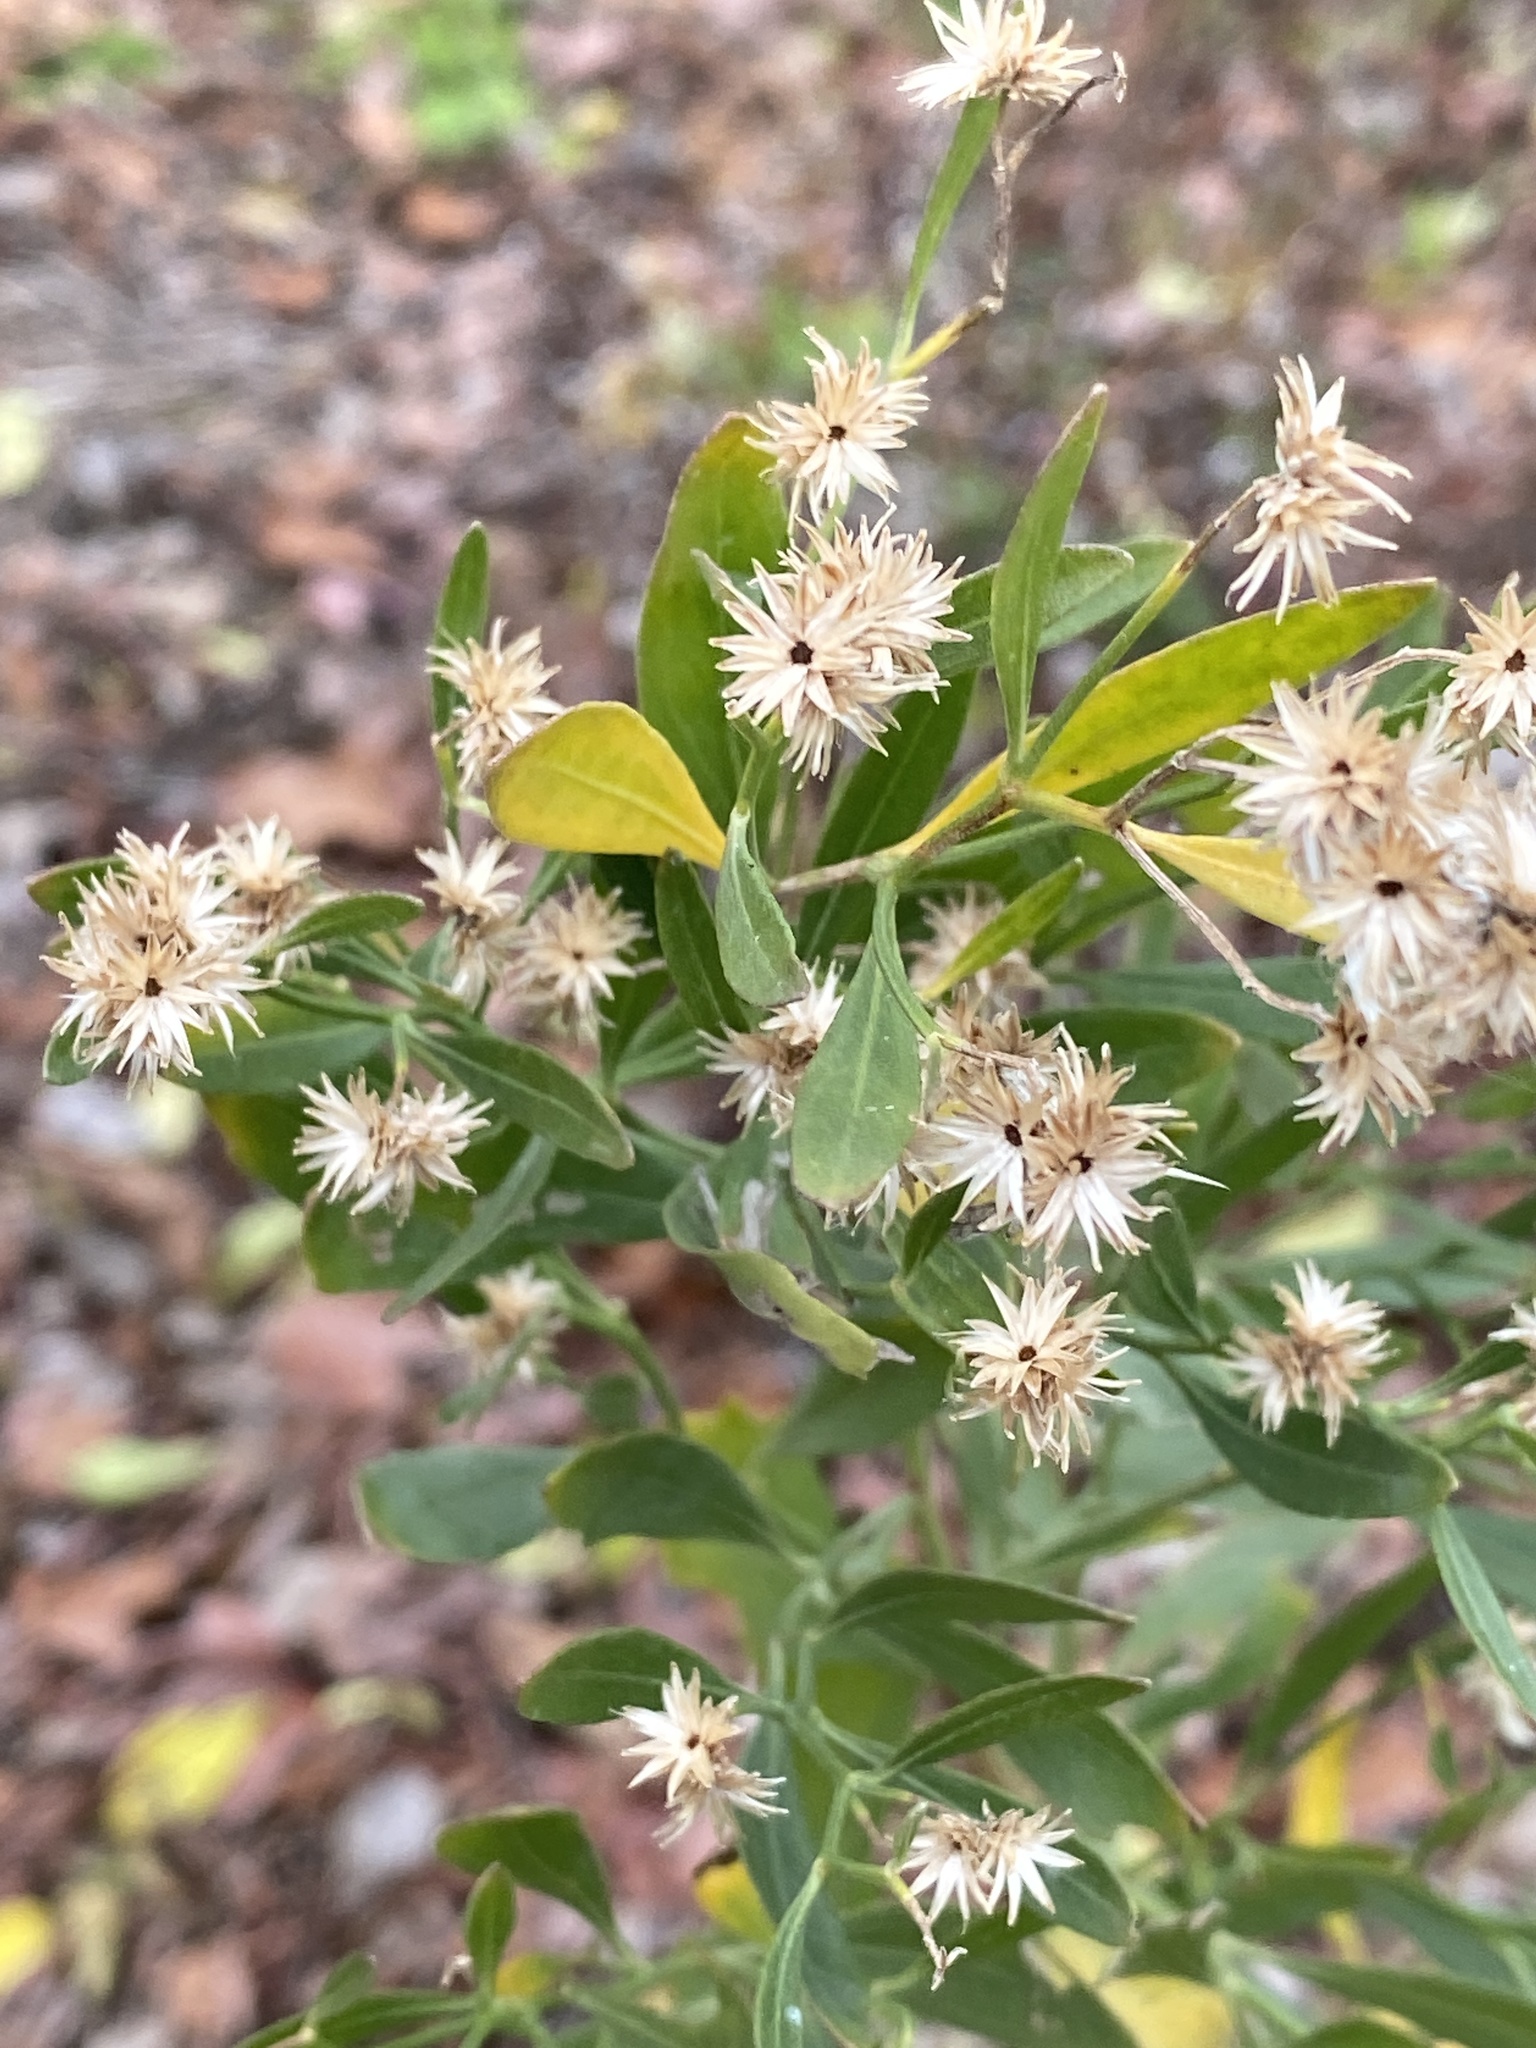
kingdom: Plantae
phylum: Tracheophyta
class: Magnoliopsida
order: Asterales
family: Asteraceae
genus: Baccharis
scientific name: Baccharis halimifolia
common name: Eastern baccharis
